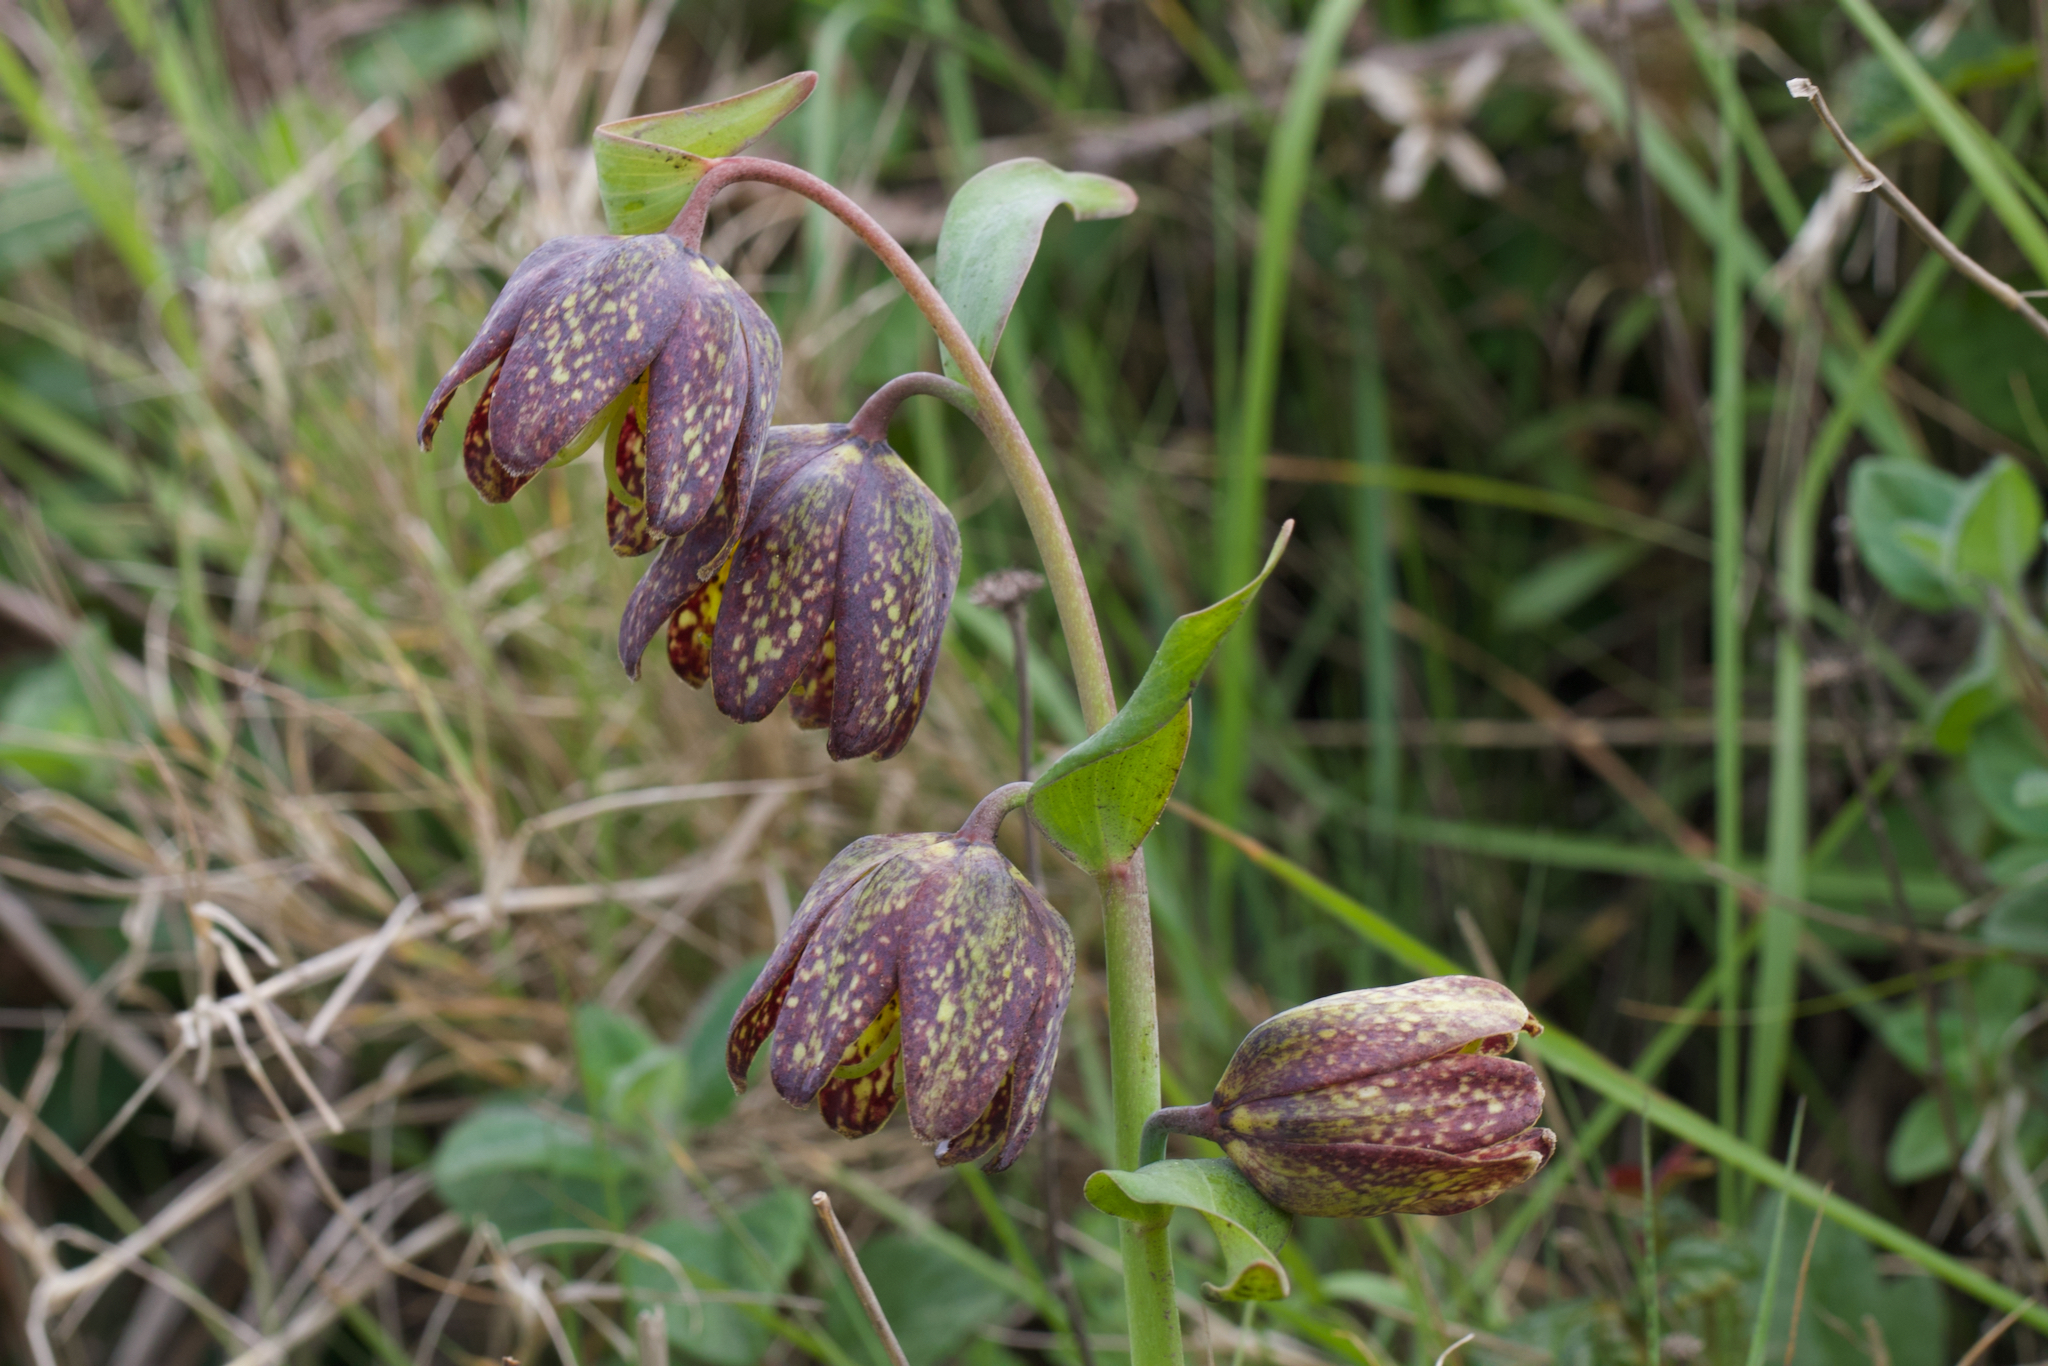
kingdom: Plantae
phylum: Tracheophyta
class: Liliopsida
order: Liliales
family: Liliaceae
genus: Fritillaria
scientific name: Fritillaria affinis
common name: Ojai fritillary
